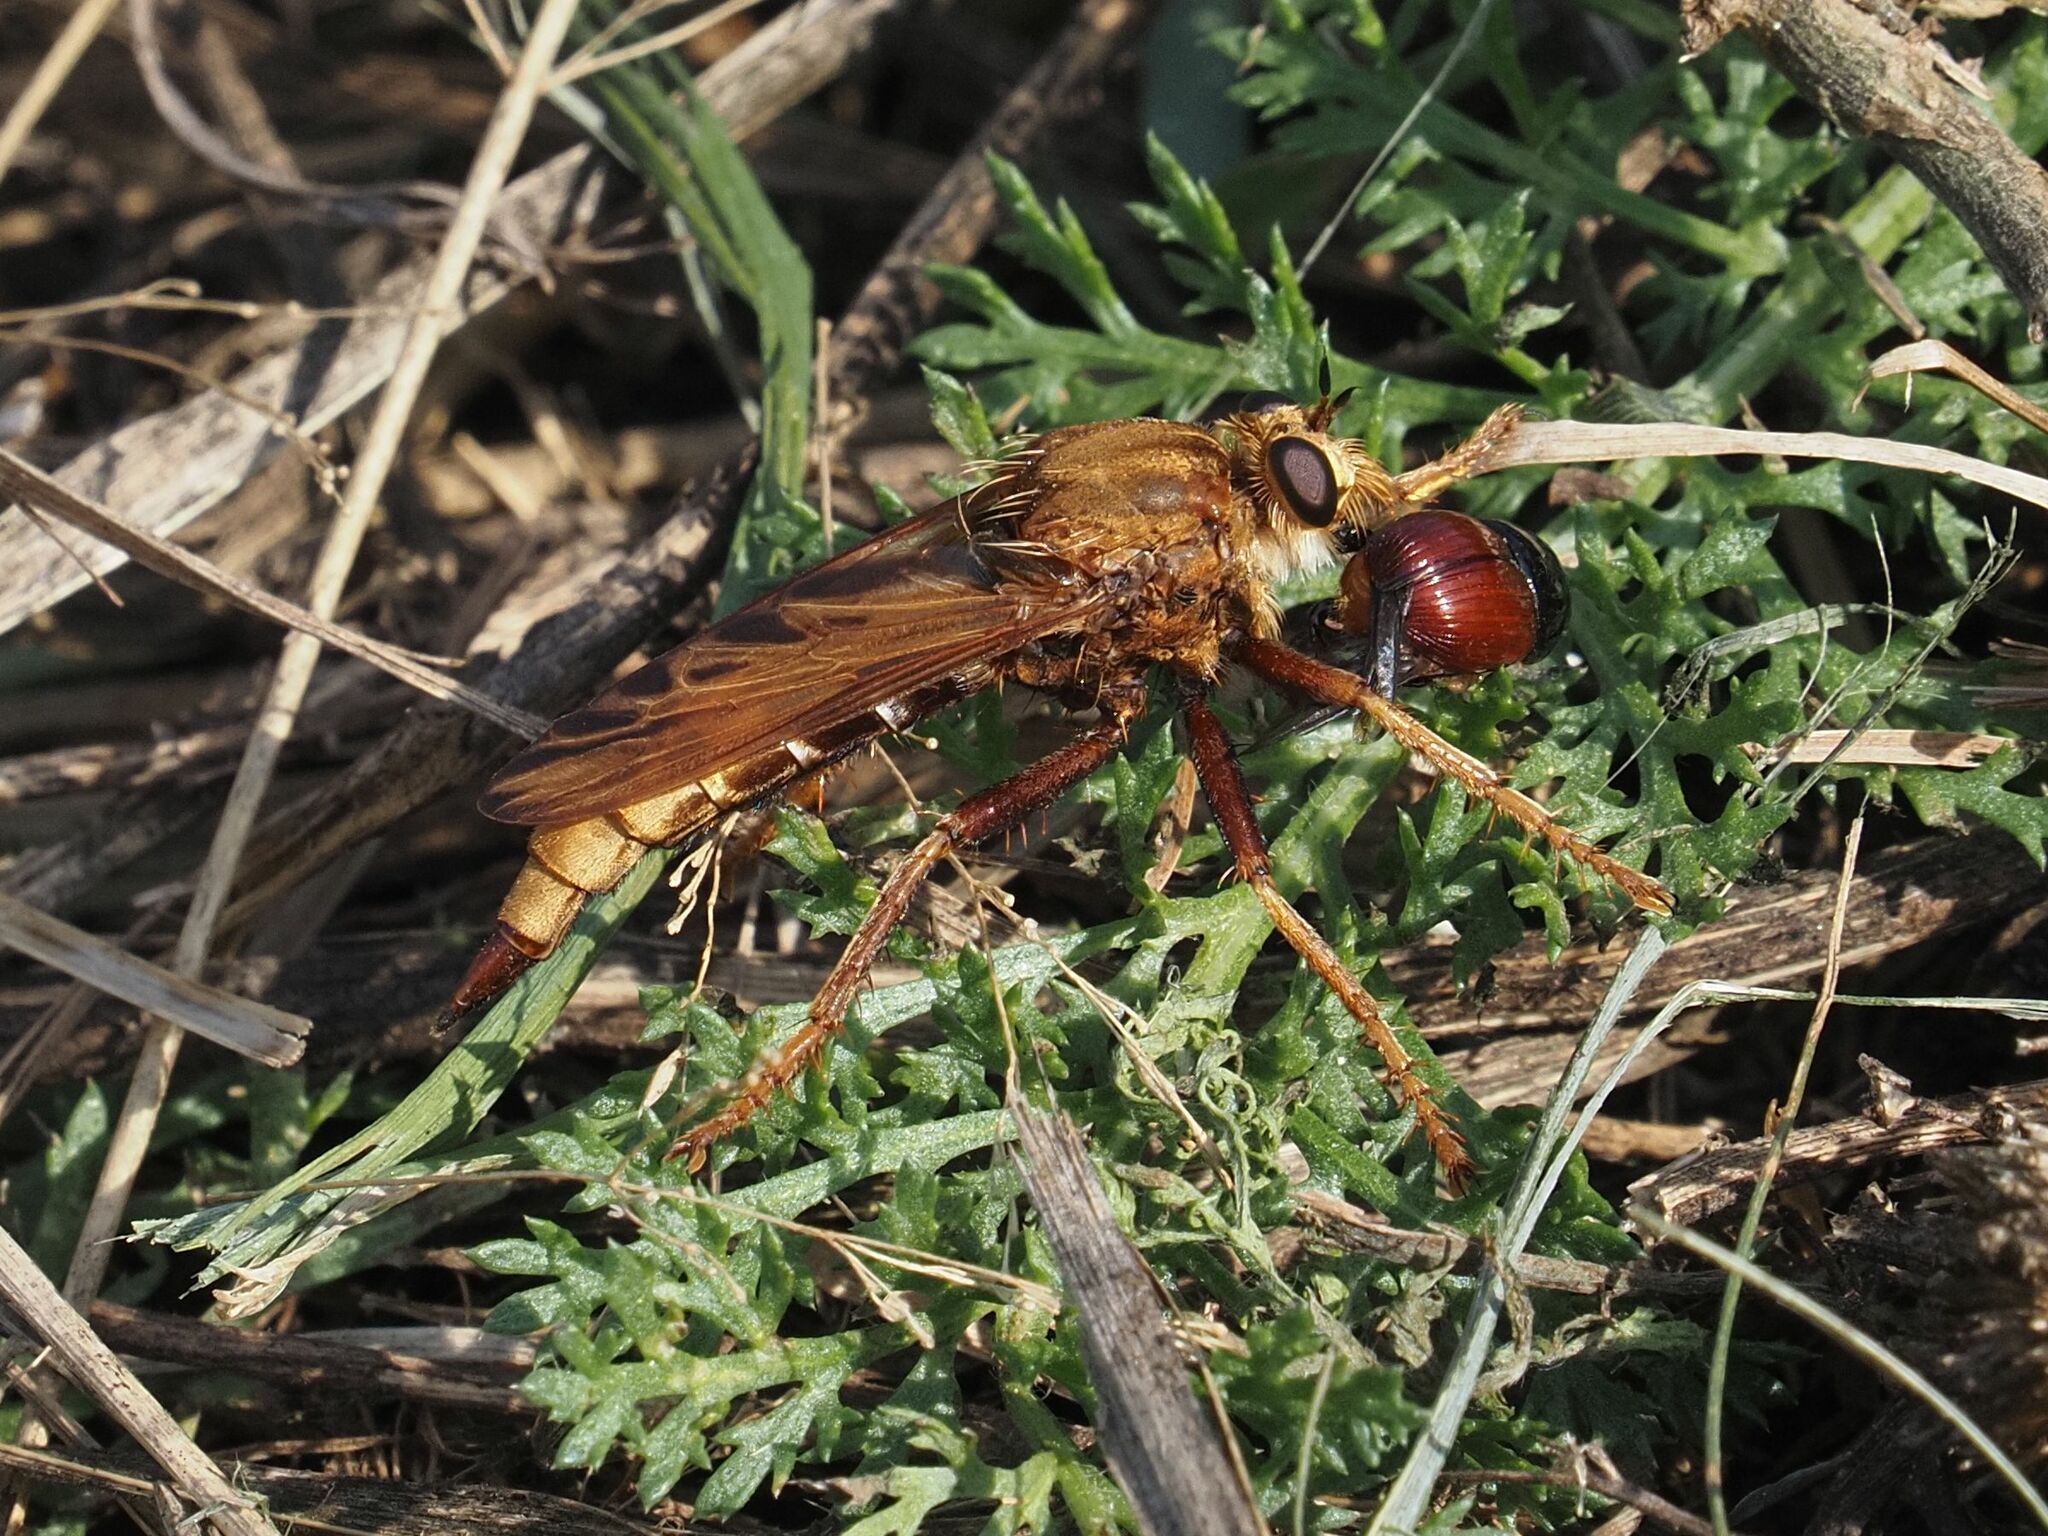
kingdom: Animalia
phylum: Arthropoda
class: Insecta
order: Diptera
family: Asilidae
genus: Asilus
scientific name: Asilus crabroniformis
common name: Hornet robberfly
